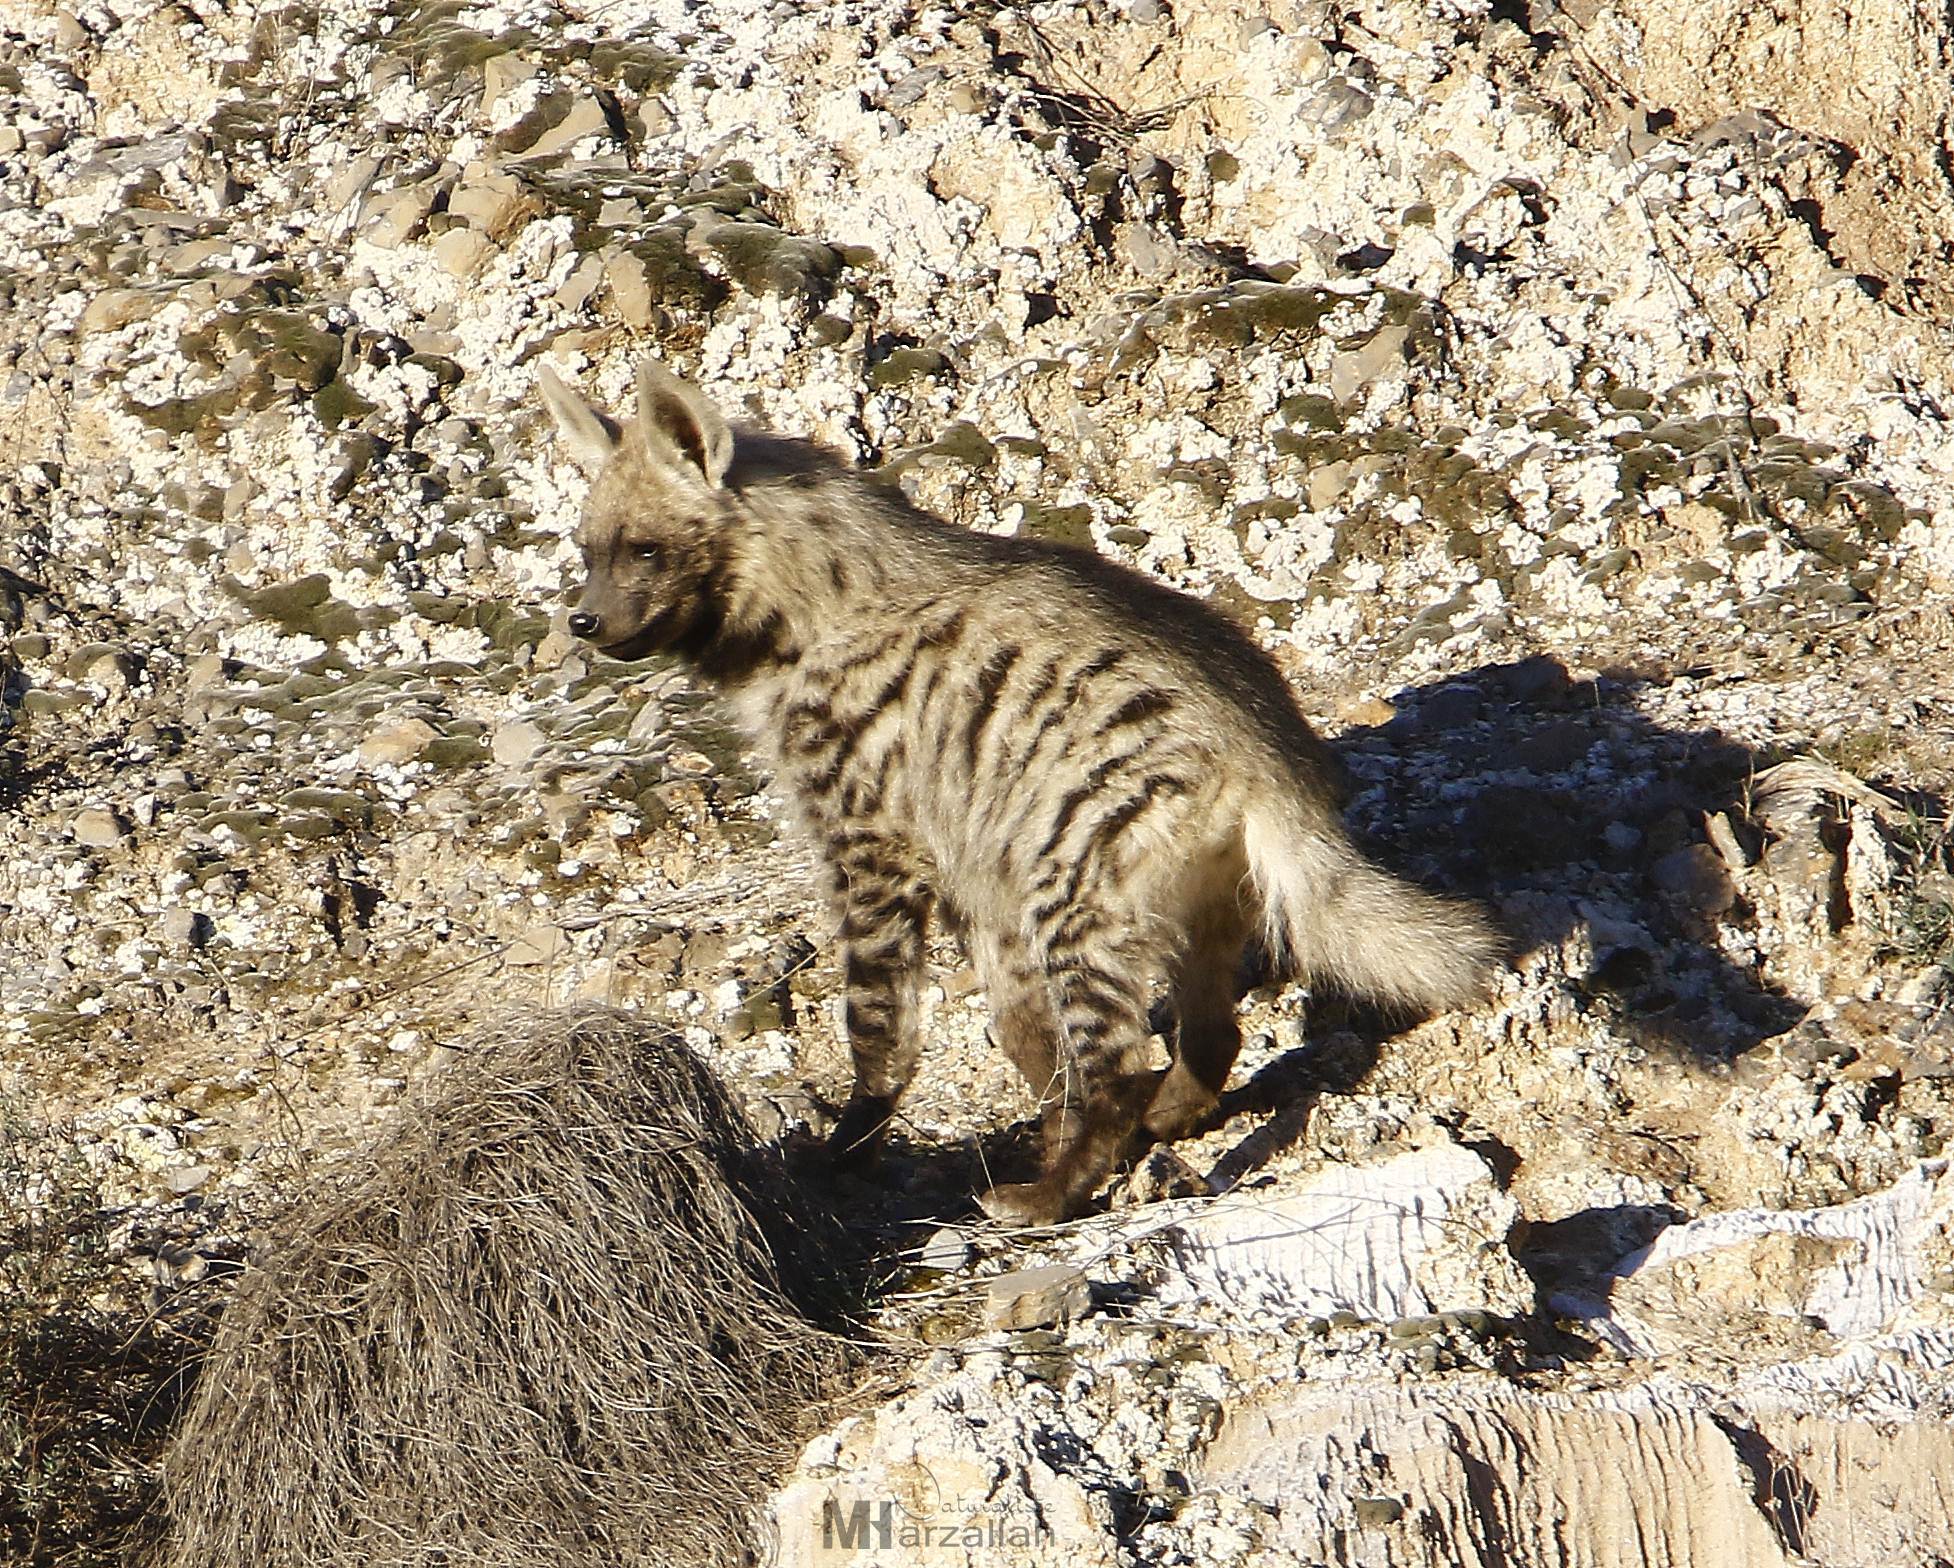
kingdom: Animalia
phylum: Chordata
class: Mammalia
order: Carnivora
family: Hyaenidae
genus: Hyaena
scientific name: Hyaena hyaena
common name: Striped hyaena
